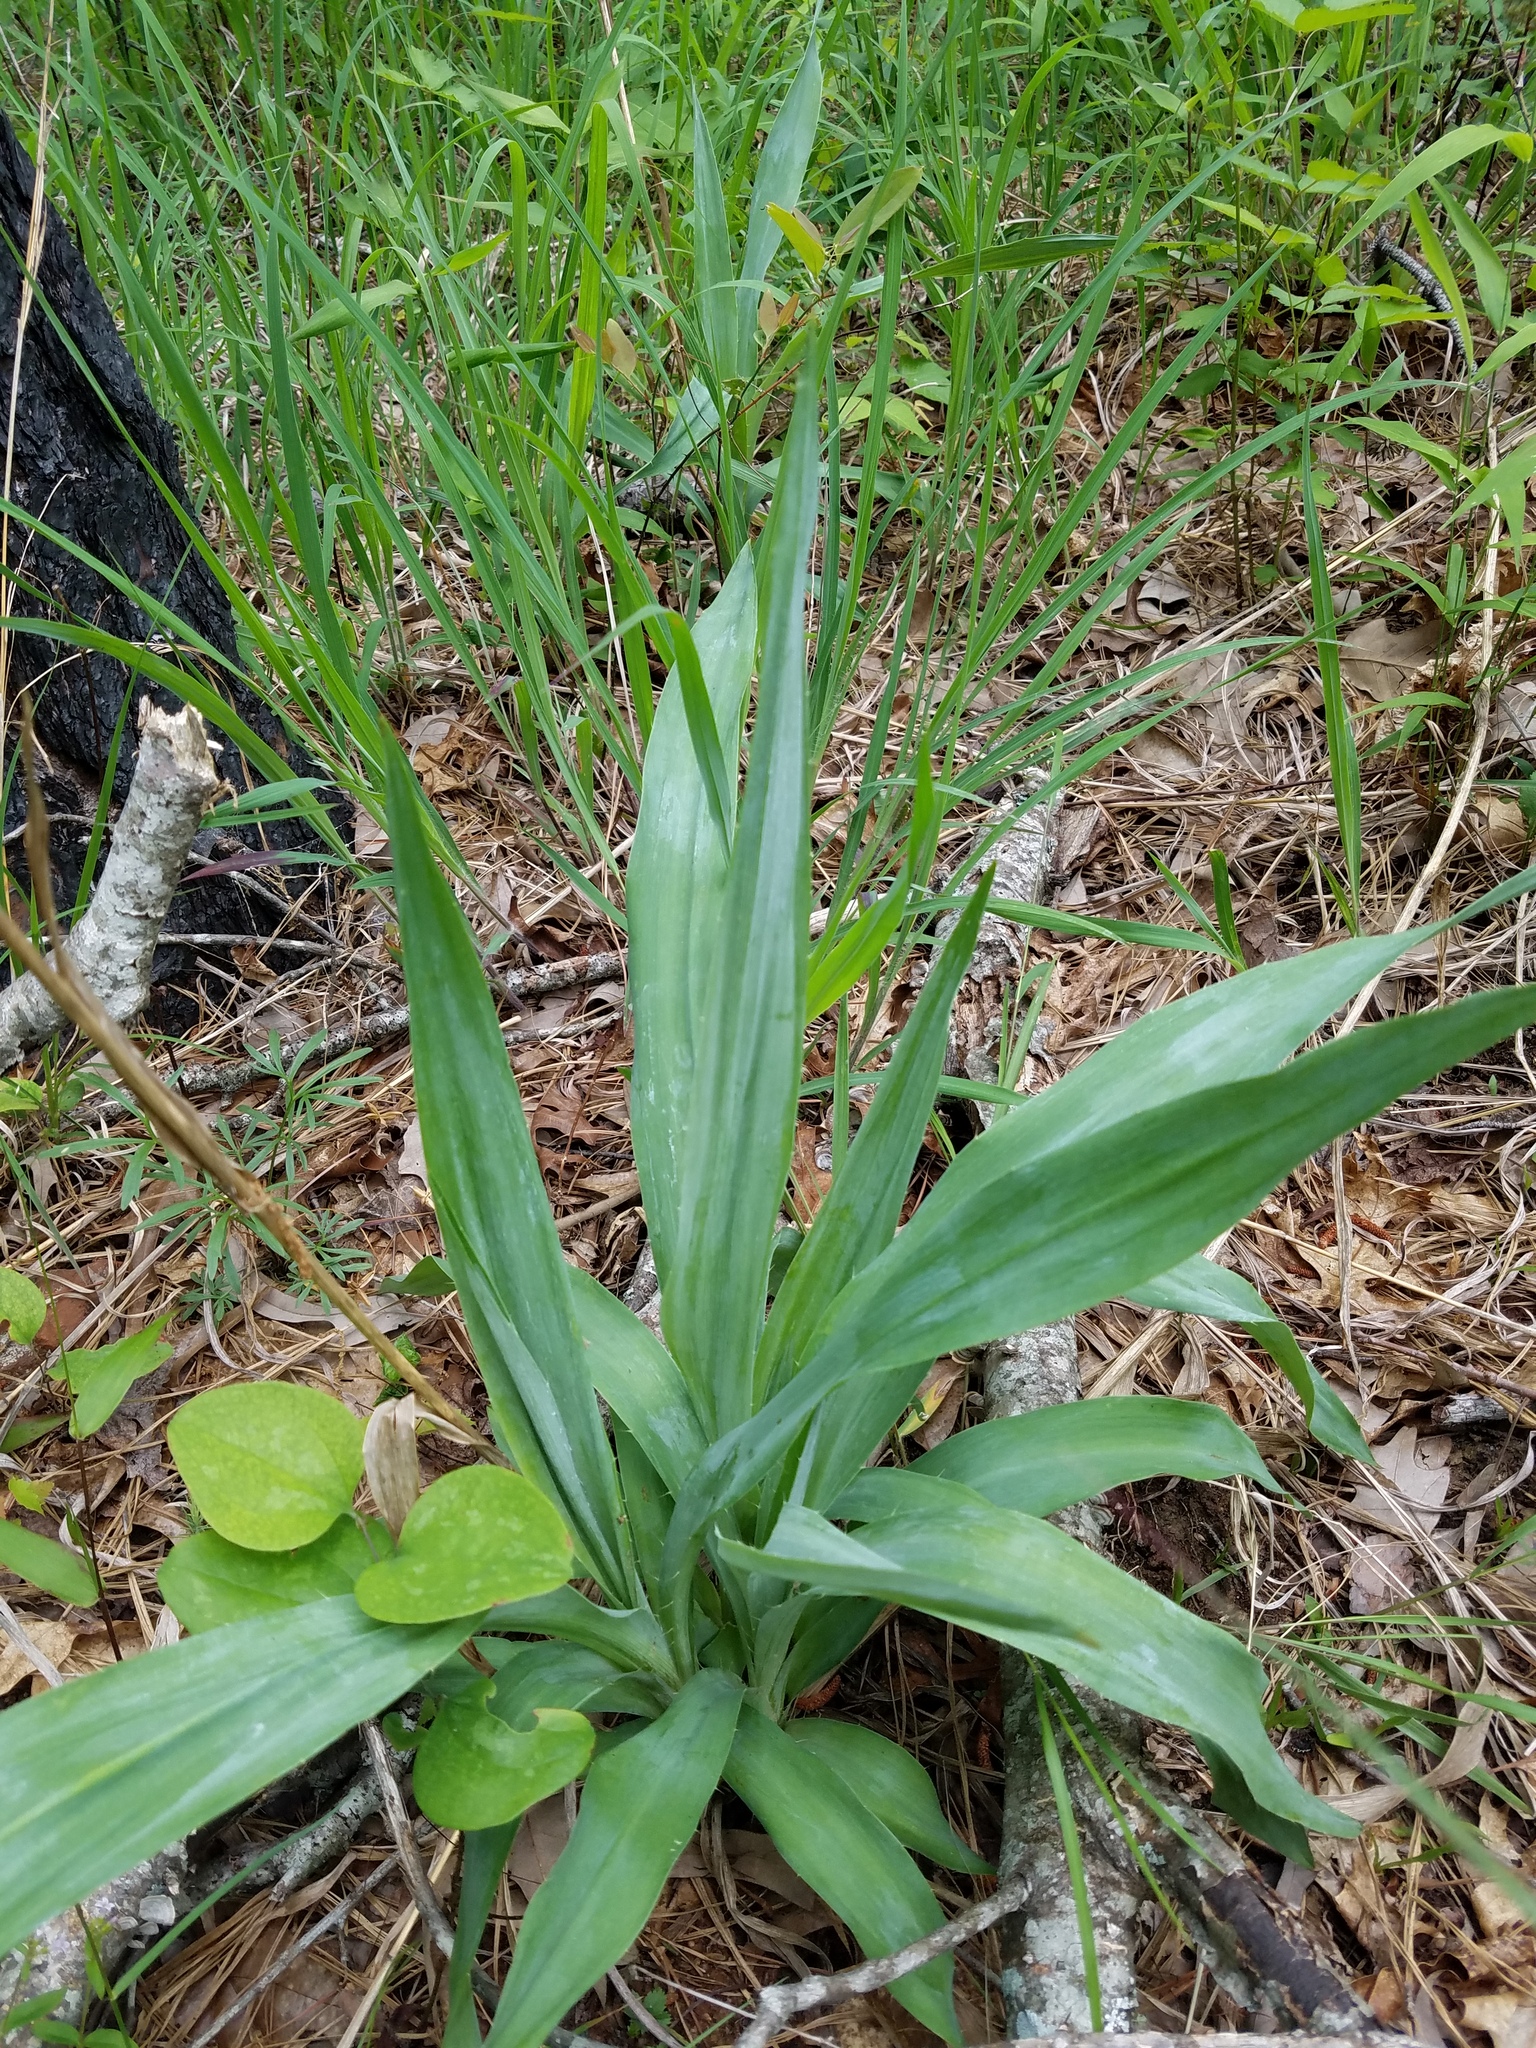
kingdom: Plantae
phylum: Tracheophyta
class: Magnoliopsida
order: Apiales
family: Apiaceae
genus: Eryngium
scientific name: Eryngium yuccifolium
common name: Button eryngo
